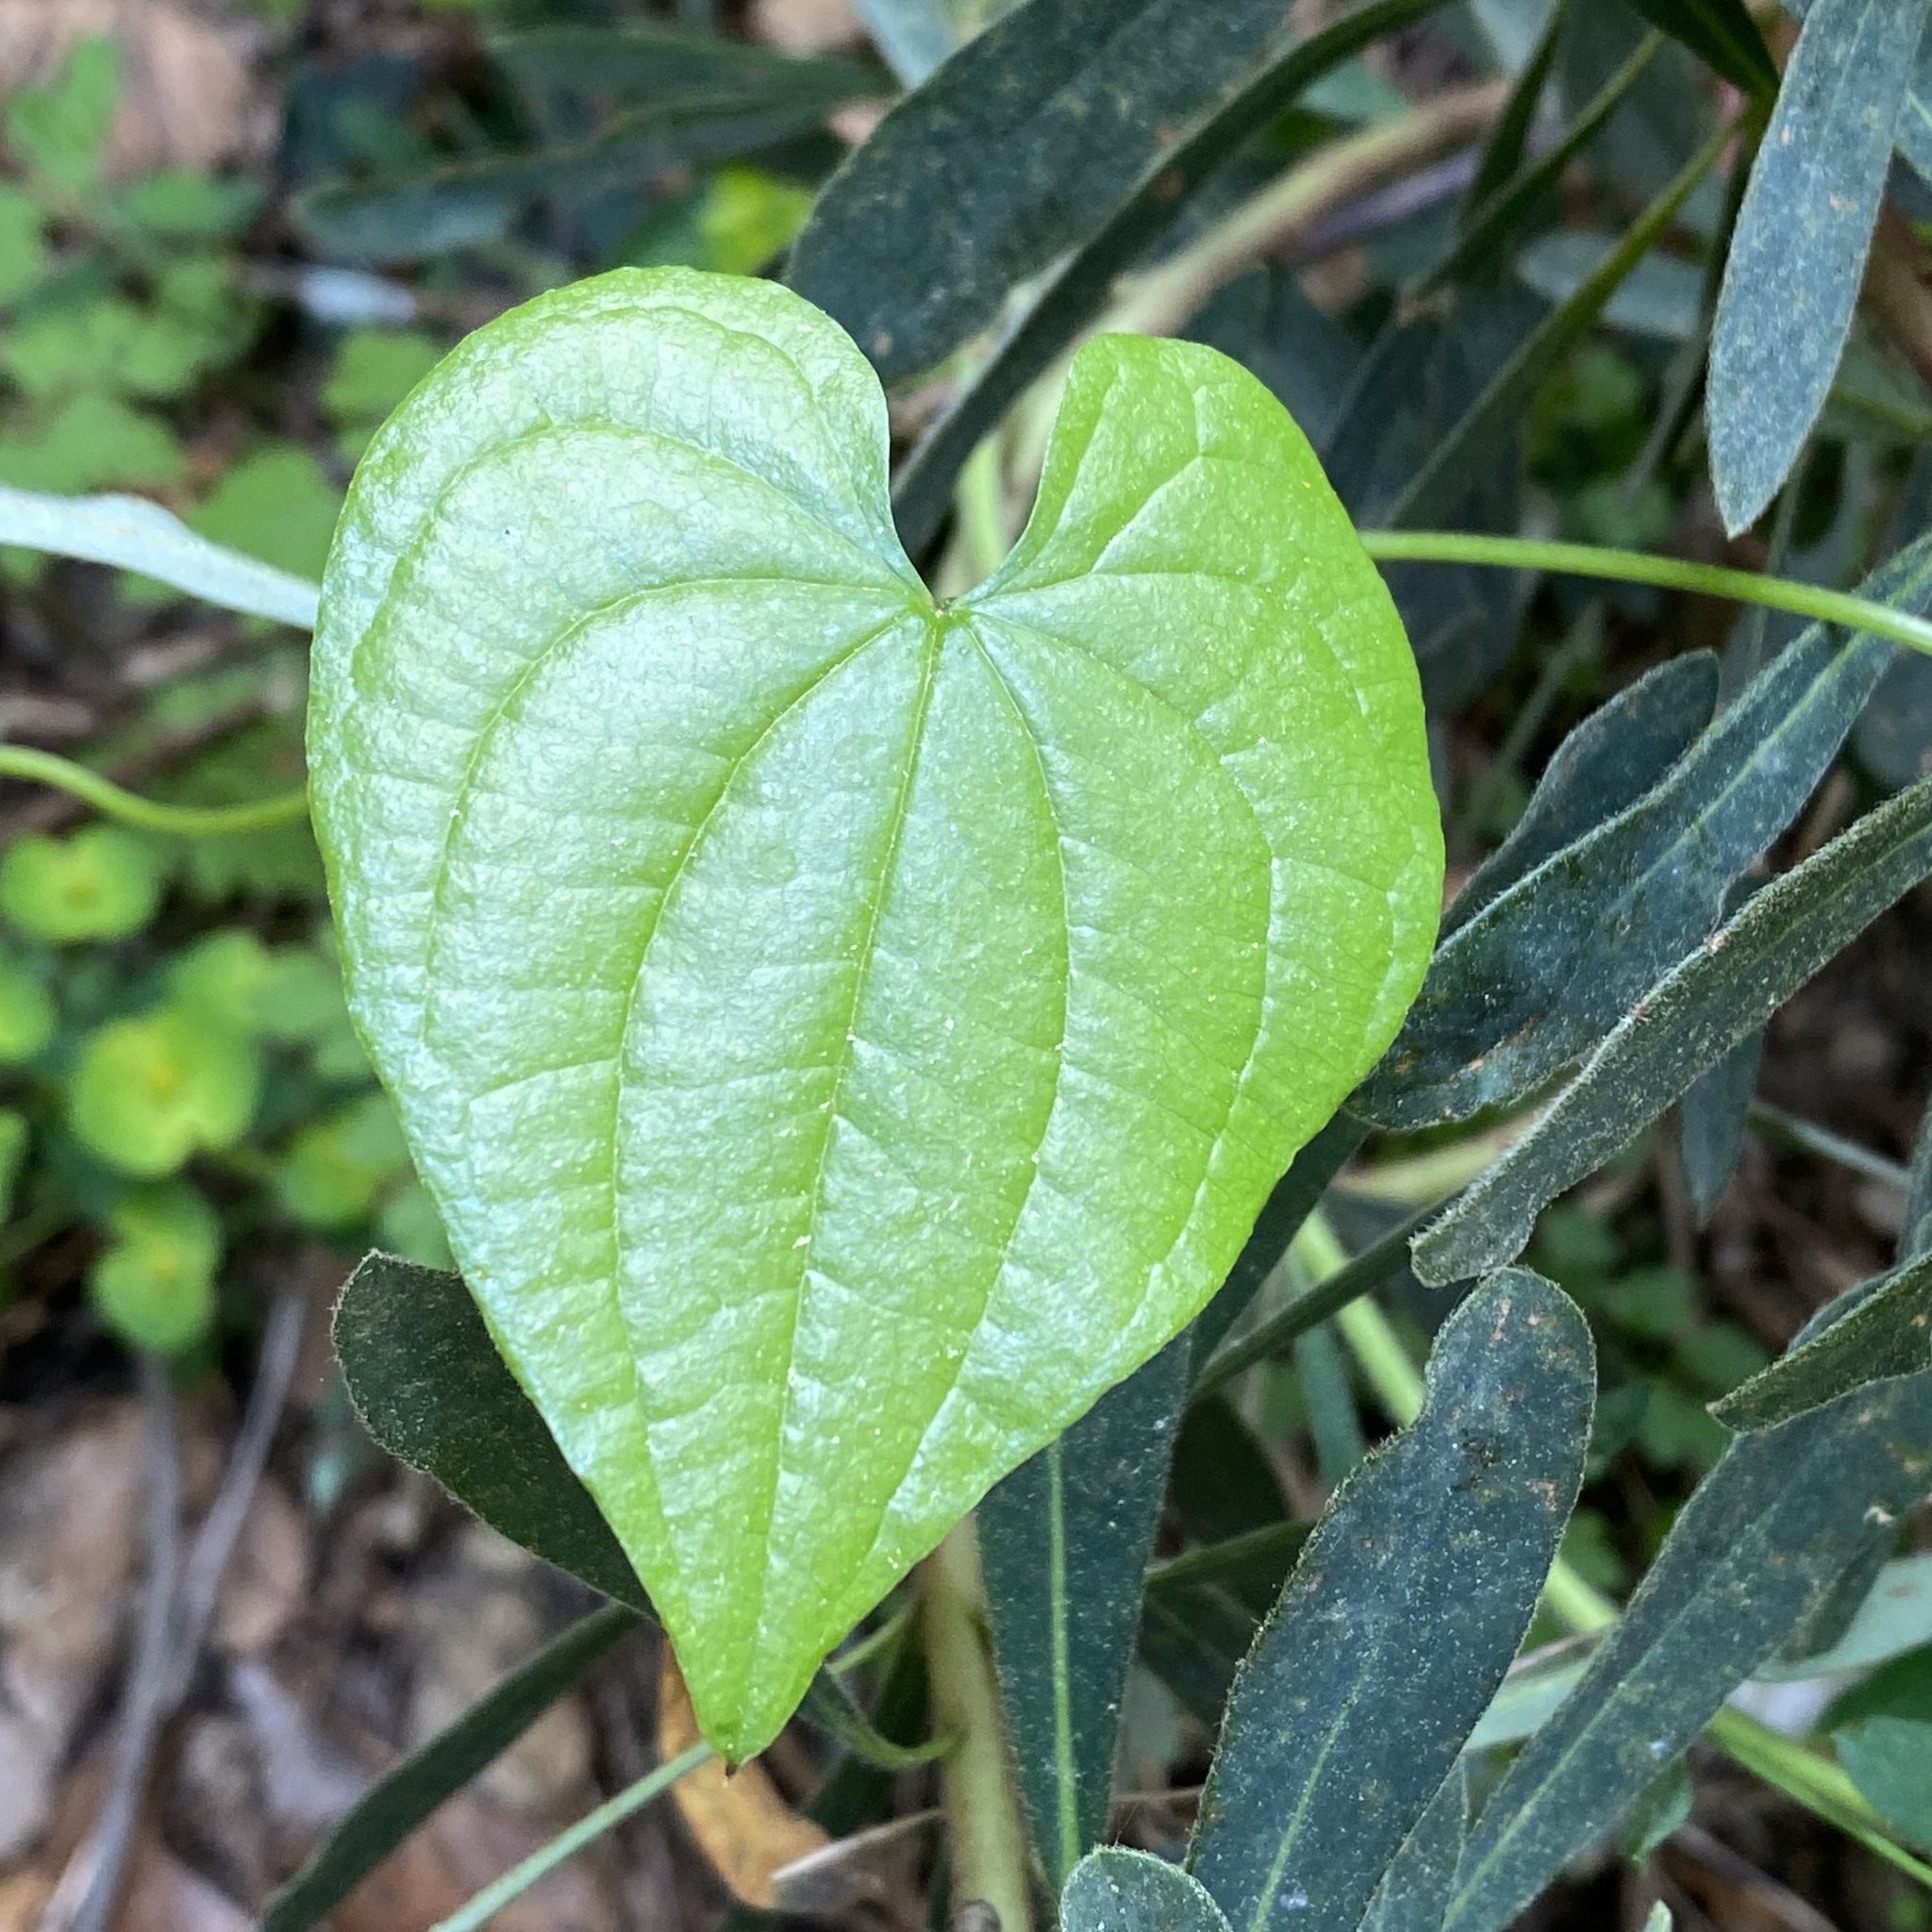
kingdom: Plantae
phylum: Tracheophyta
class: Liliopsida
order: Dioscoreales
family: Dioscoreaceae
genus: Dioscorea
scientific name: Dioscorea communis
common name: Black-bindweed
